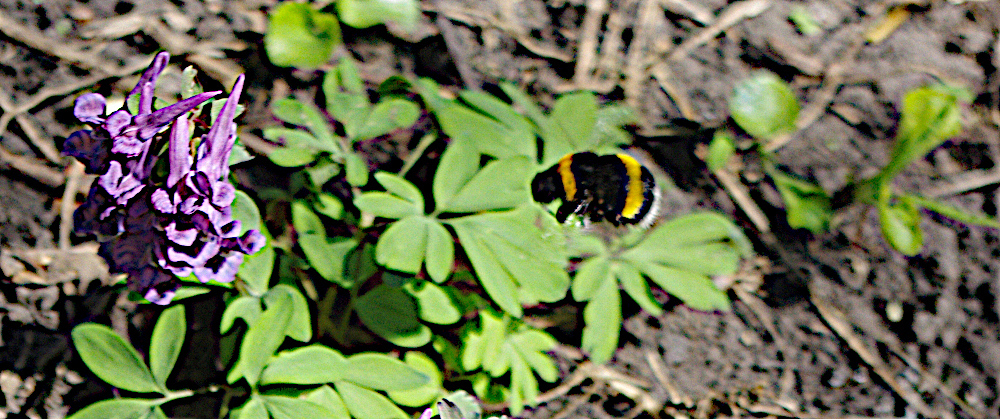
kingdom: Animalia
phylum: Arthropoda
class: Insecta
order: Hymenoptera
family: Apidae
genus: Bombus
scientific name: Bombus
